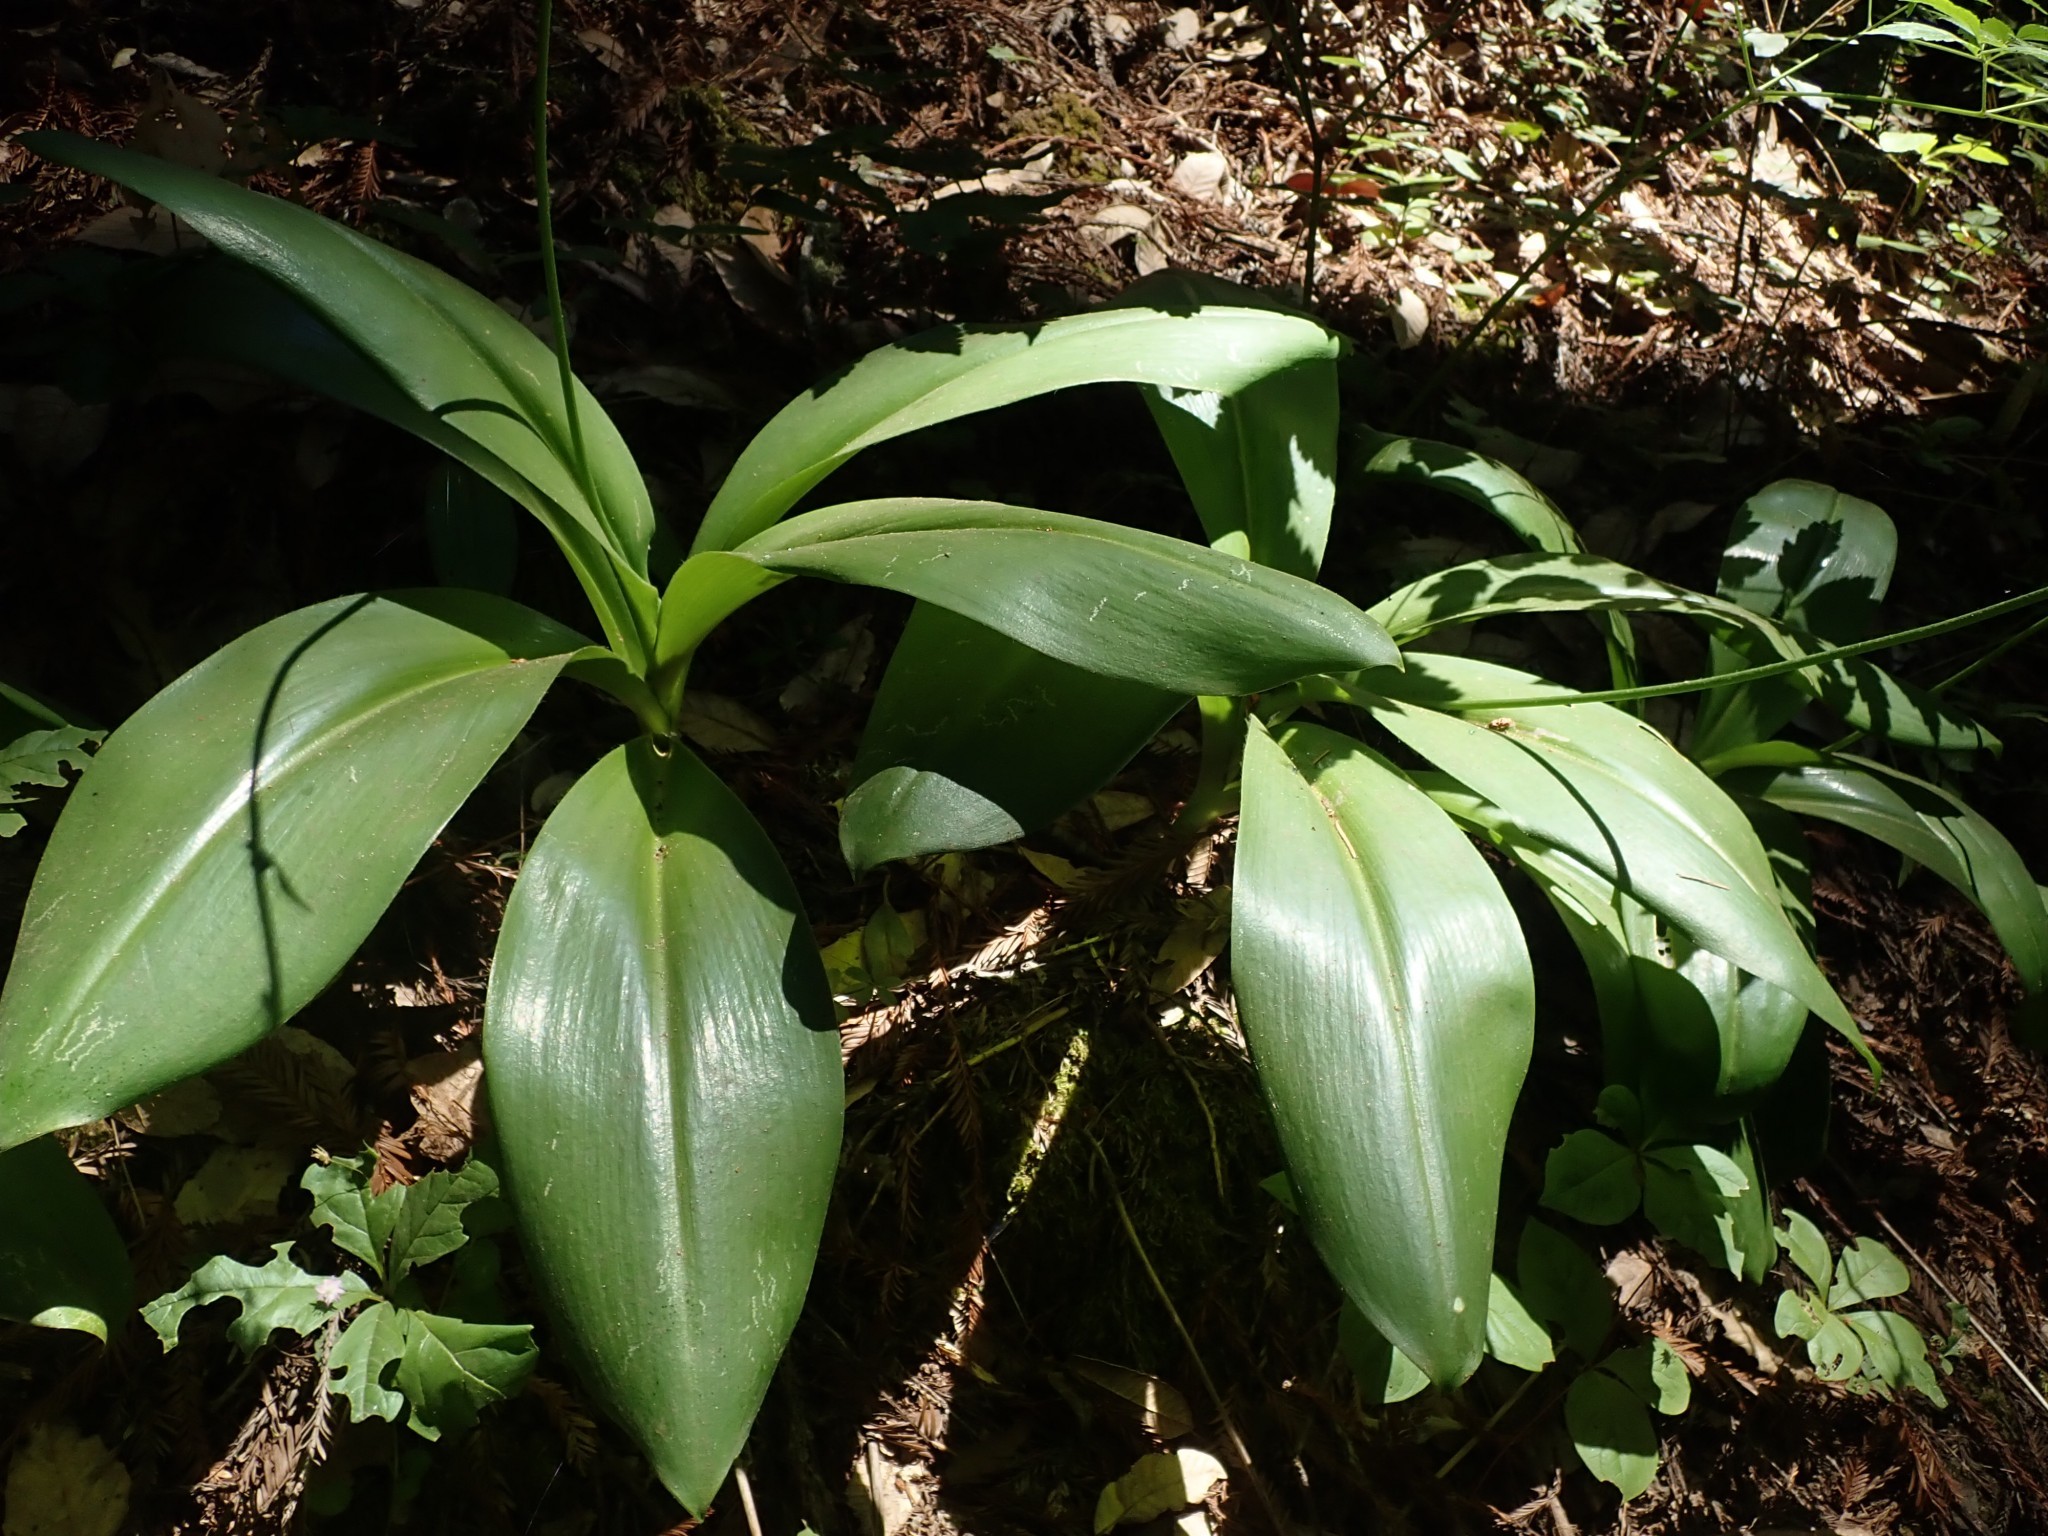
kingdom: Plantae
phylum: Tracheophyta
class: Liliopsida
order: Liliales
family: Liliaceae
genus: Clintonia
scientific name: Clintonia andrewsiana
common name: Red clintonia
